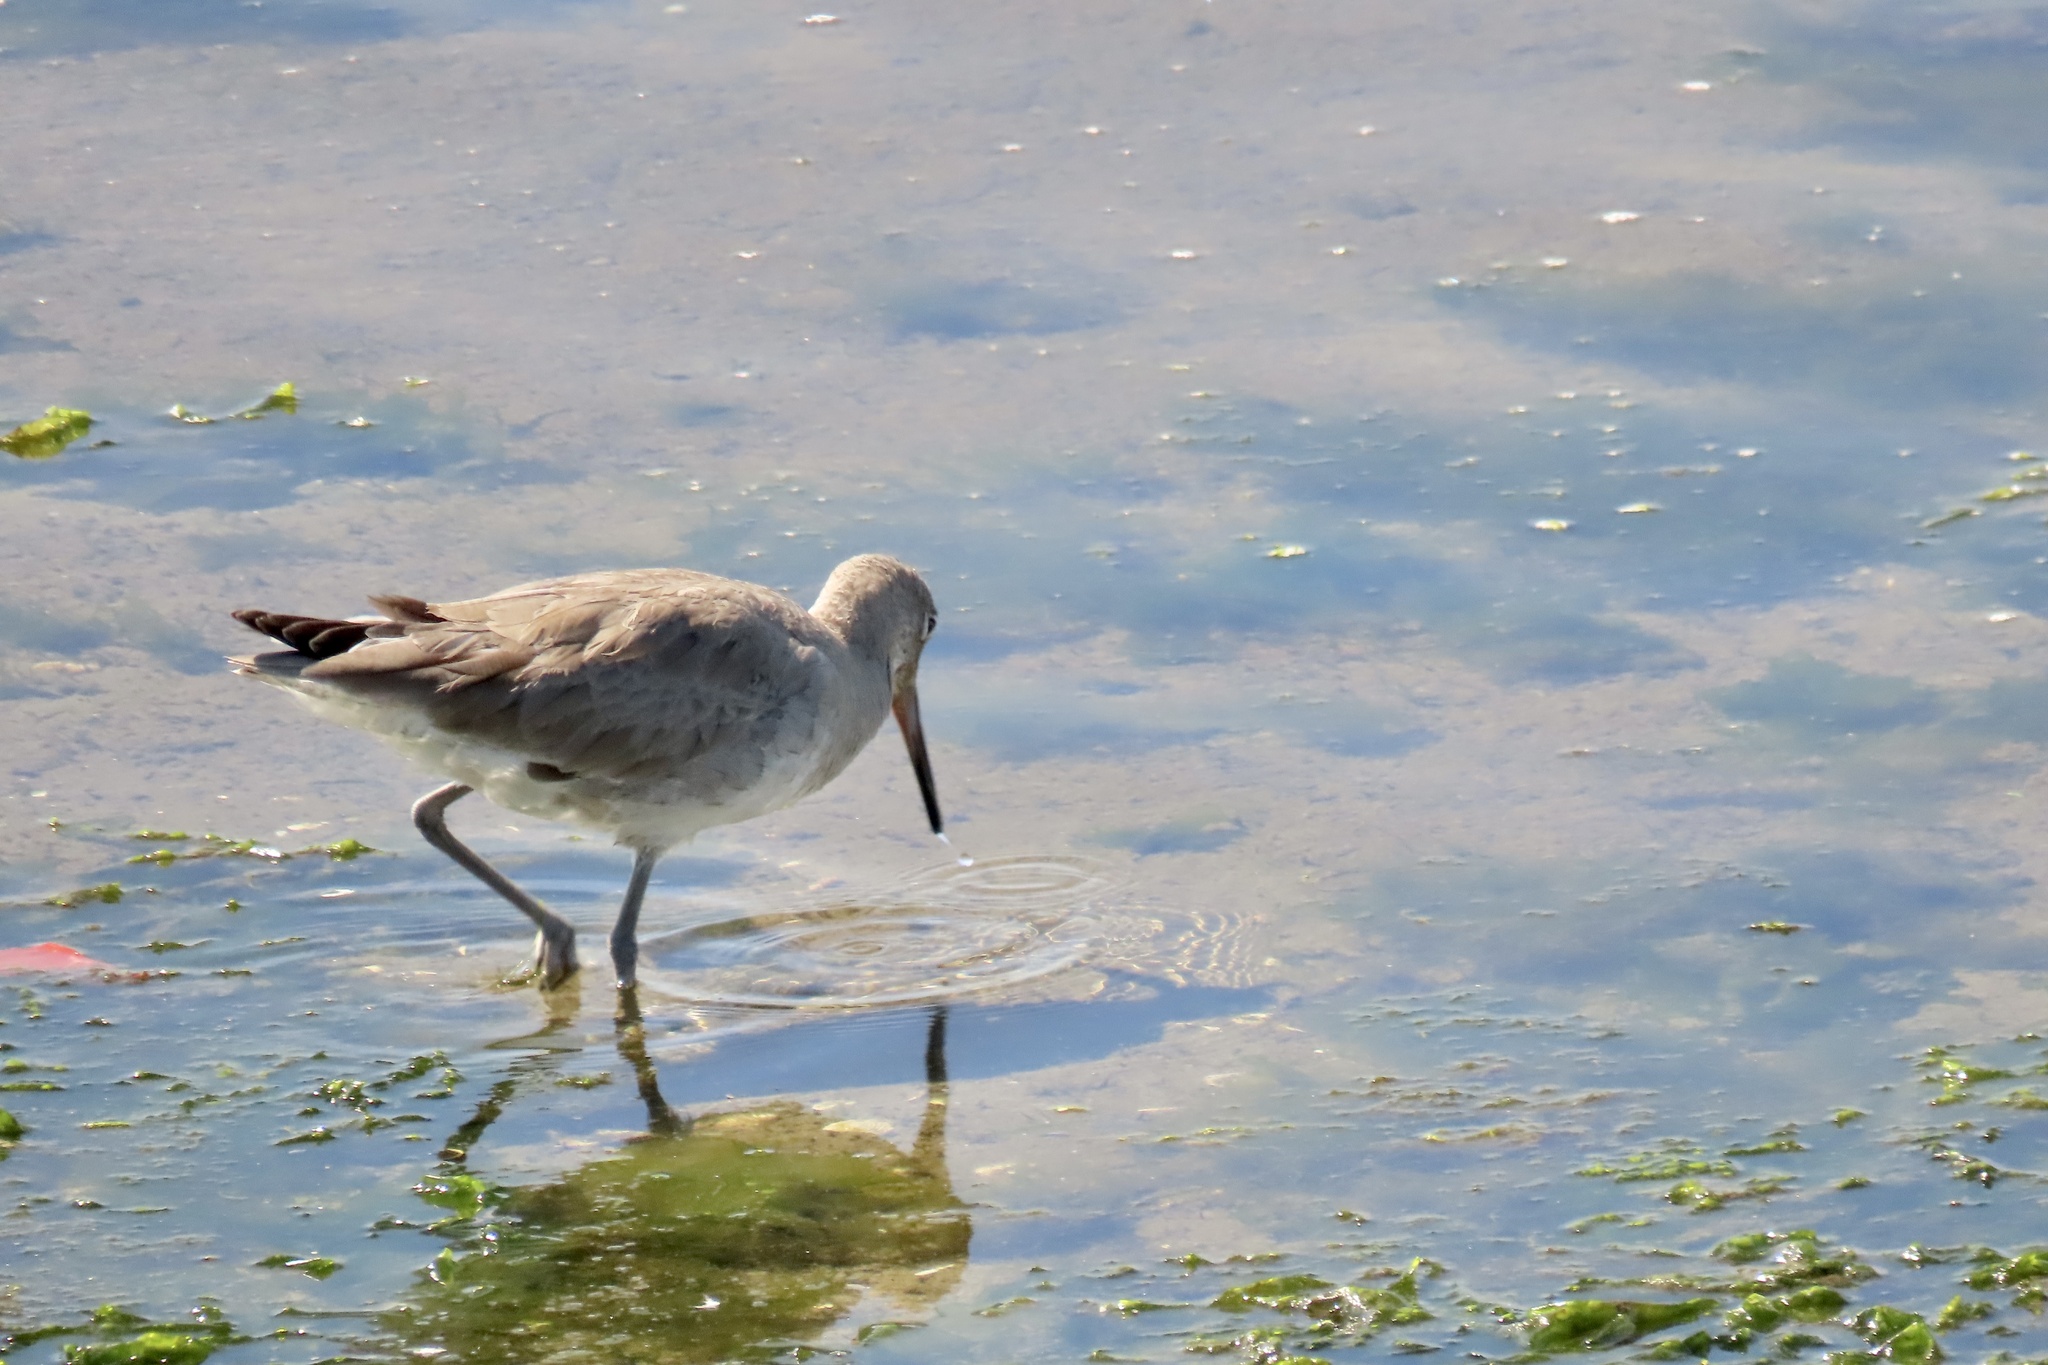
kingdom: Animalia
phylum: Chordata
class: Aves
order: Charadriiformes
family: Scolopacidae
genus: Tringa
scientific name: Tringa semipalmata
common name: Willet
